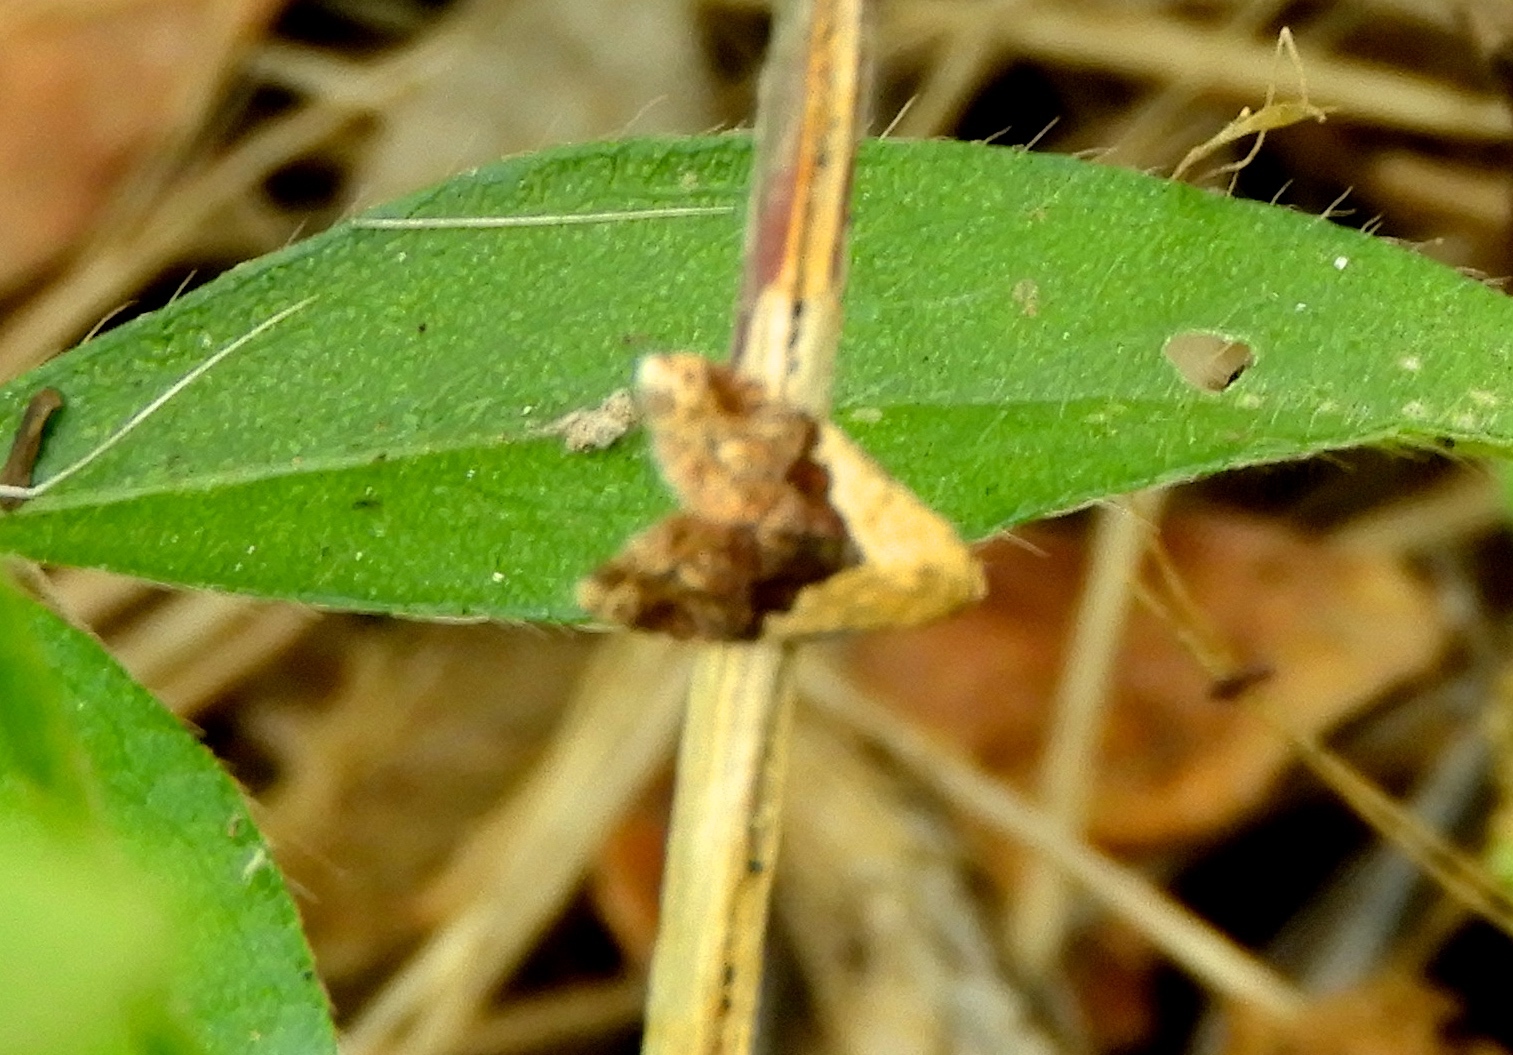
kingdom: Animalia
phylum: Arthropoda
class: Insecta
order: Lepidoptera
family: Noctuidae
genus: Tripudia
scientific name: Tripudia
